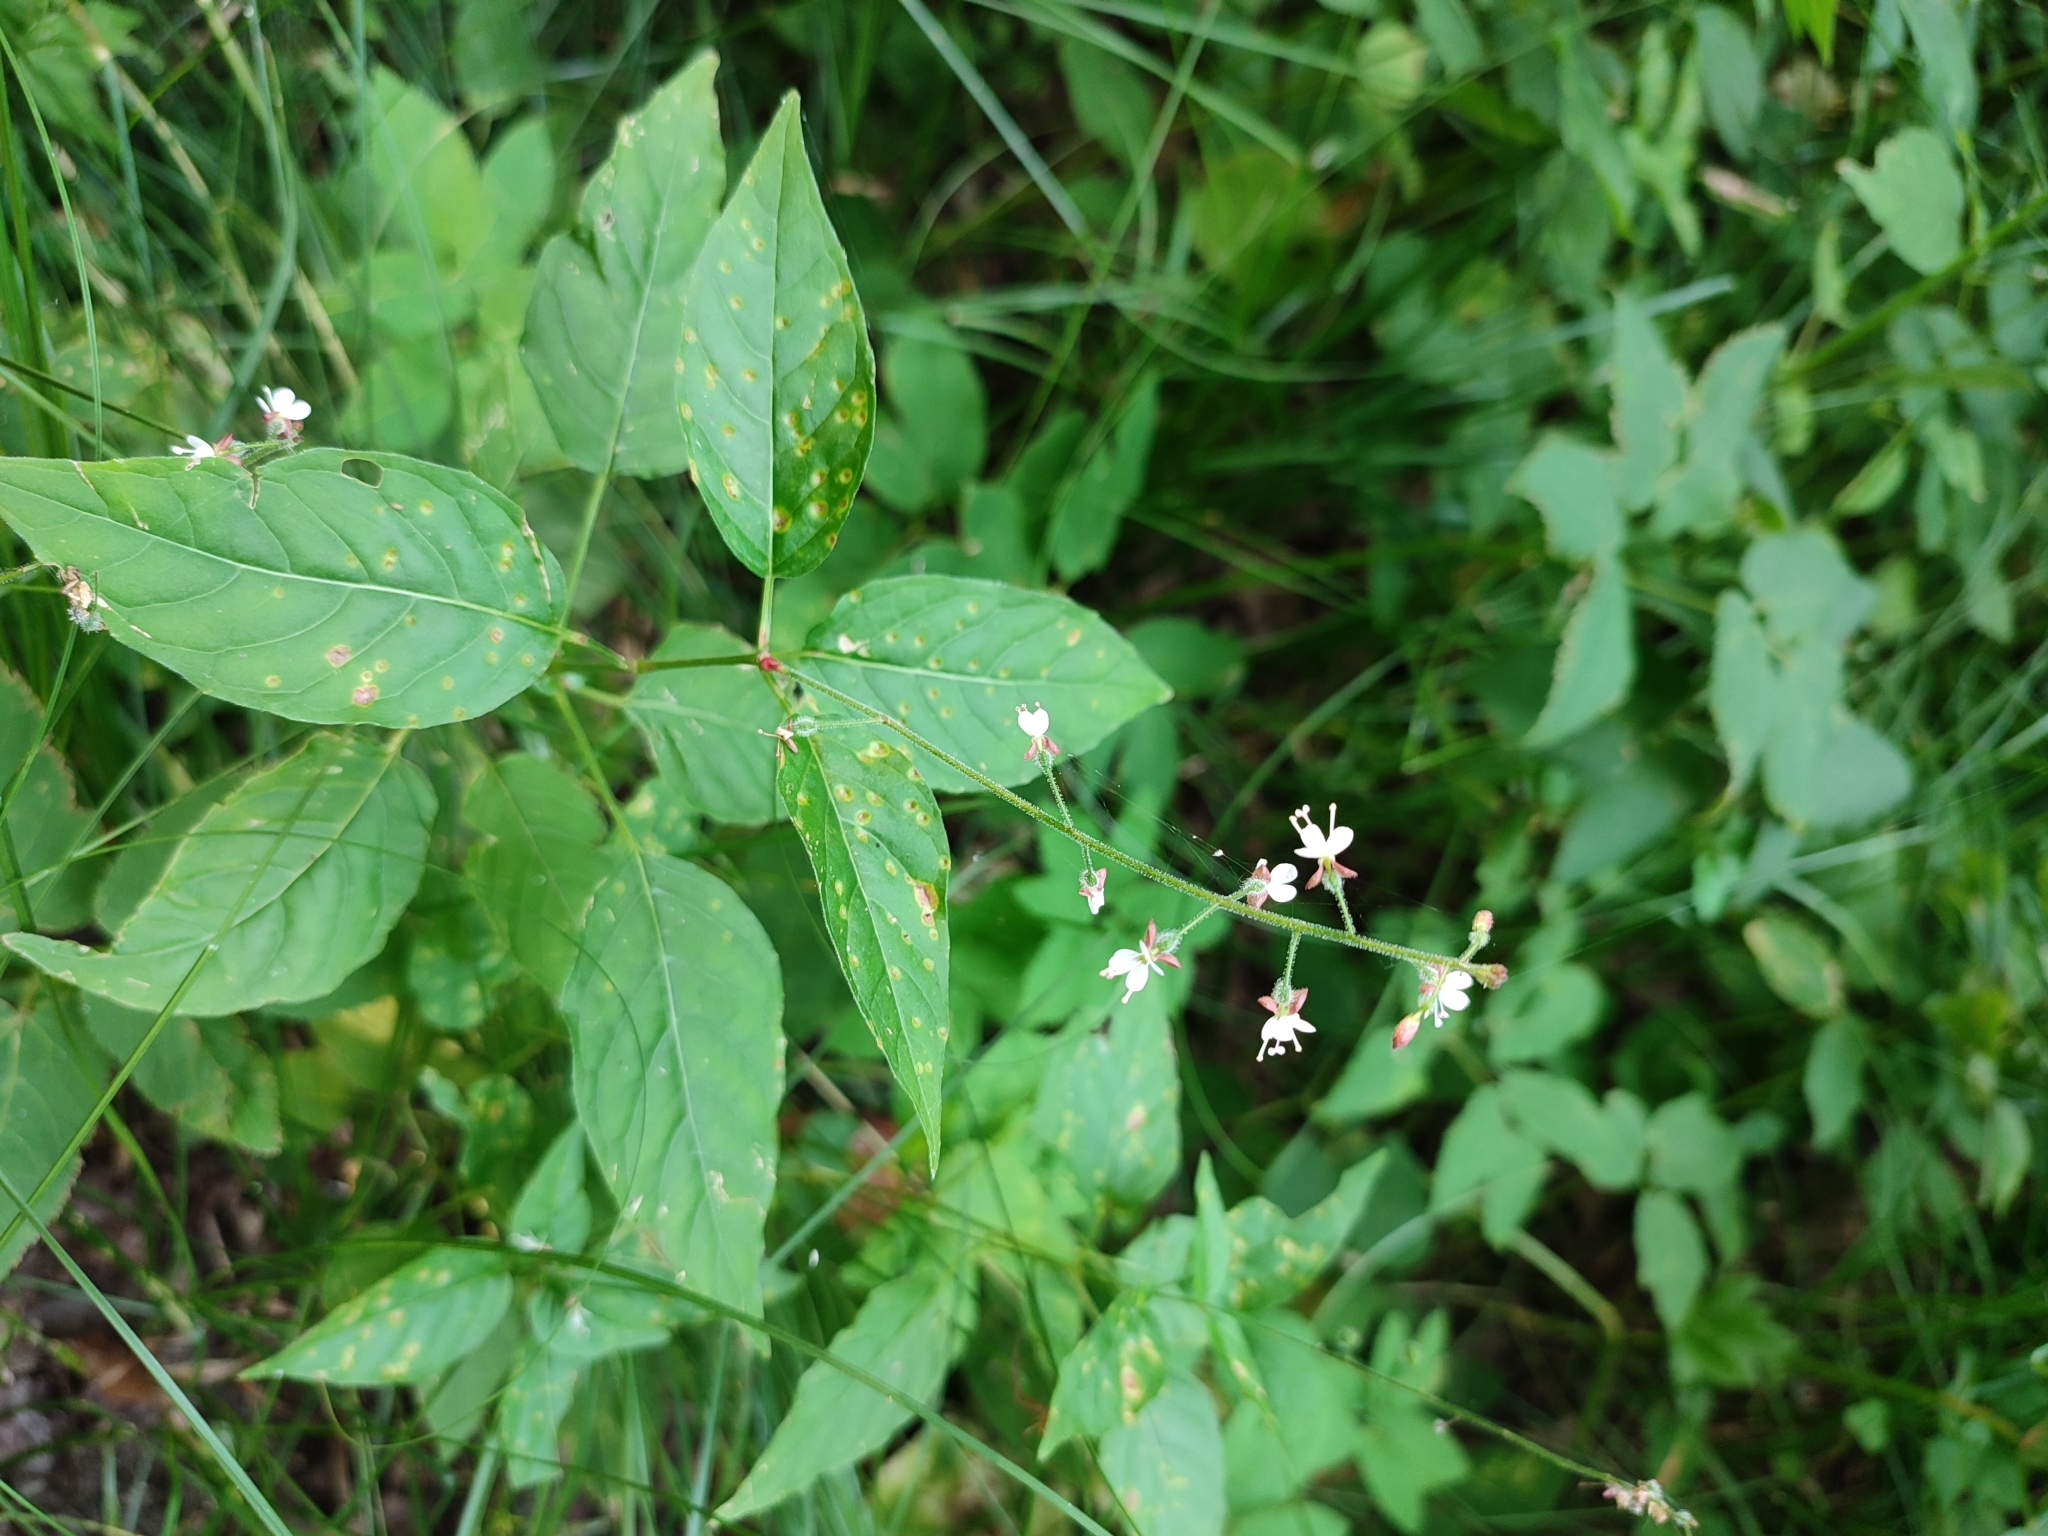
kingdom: Plantae
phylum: Tracheophyta
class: Magnoliopsida
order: Myrtales
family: Onagraceae
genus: Circaea
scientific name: Circaea lutetiana
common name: Enchanter's-nightshade
